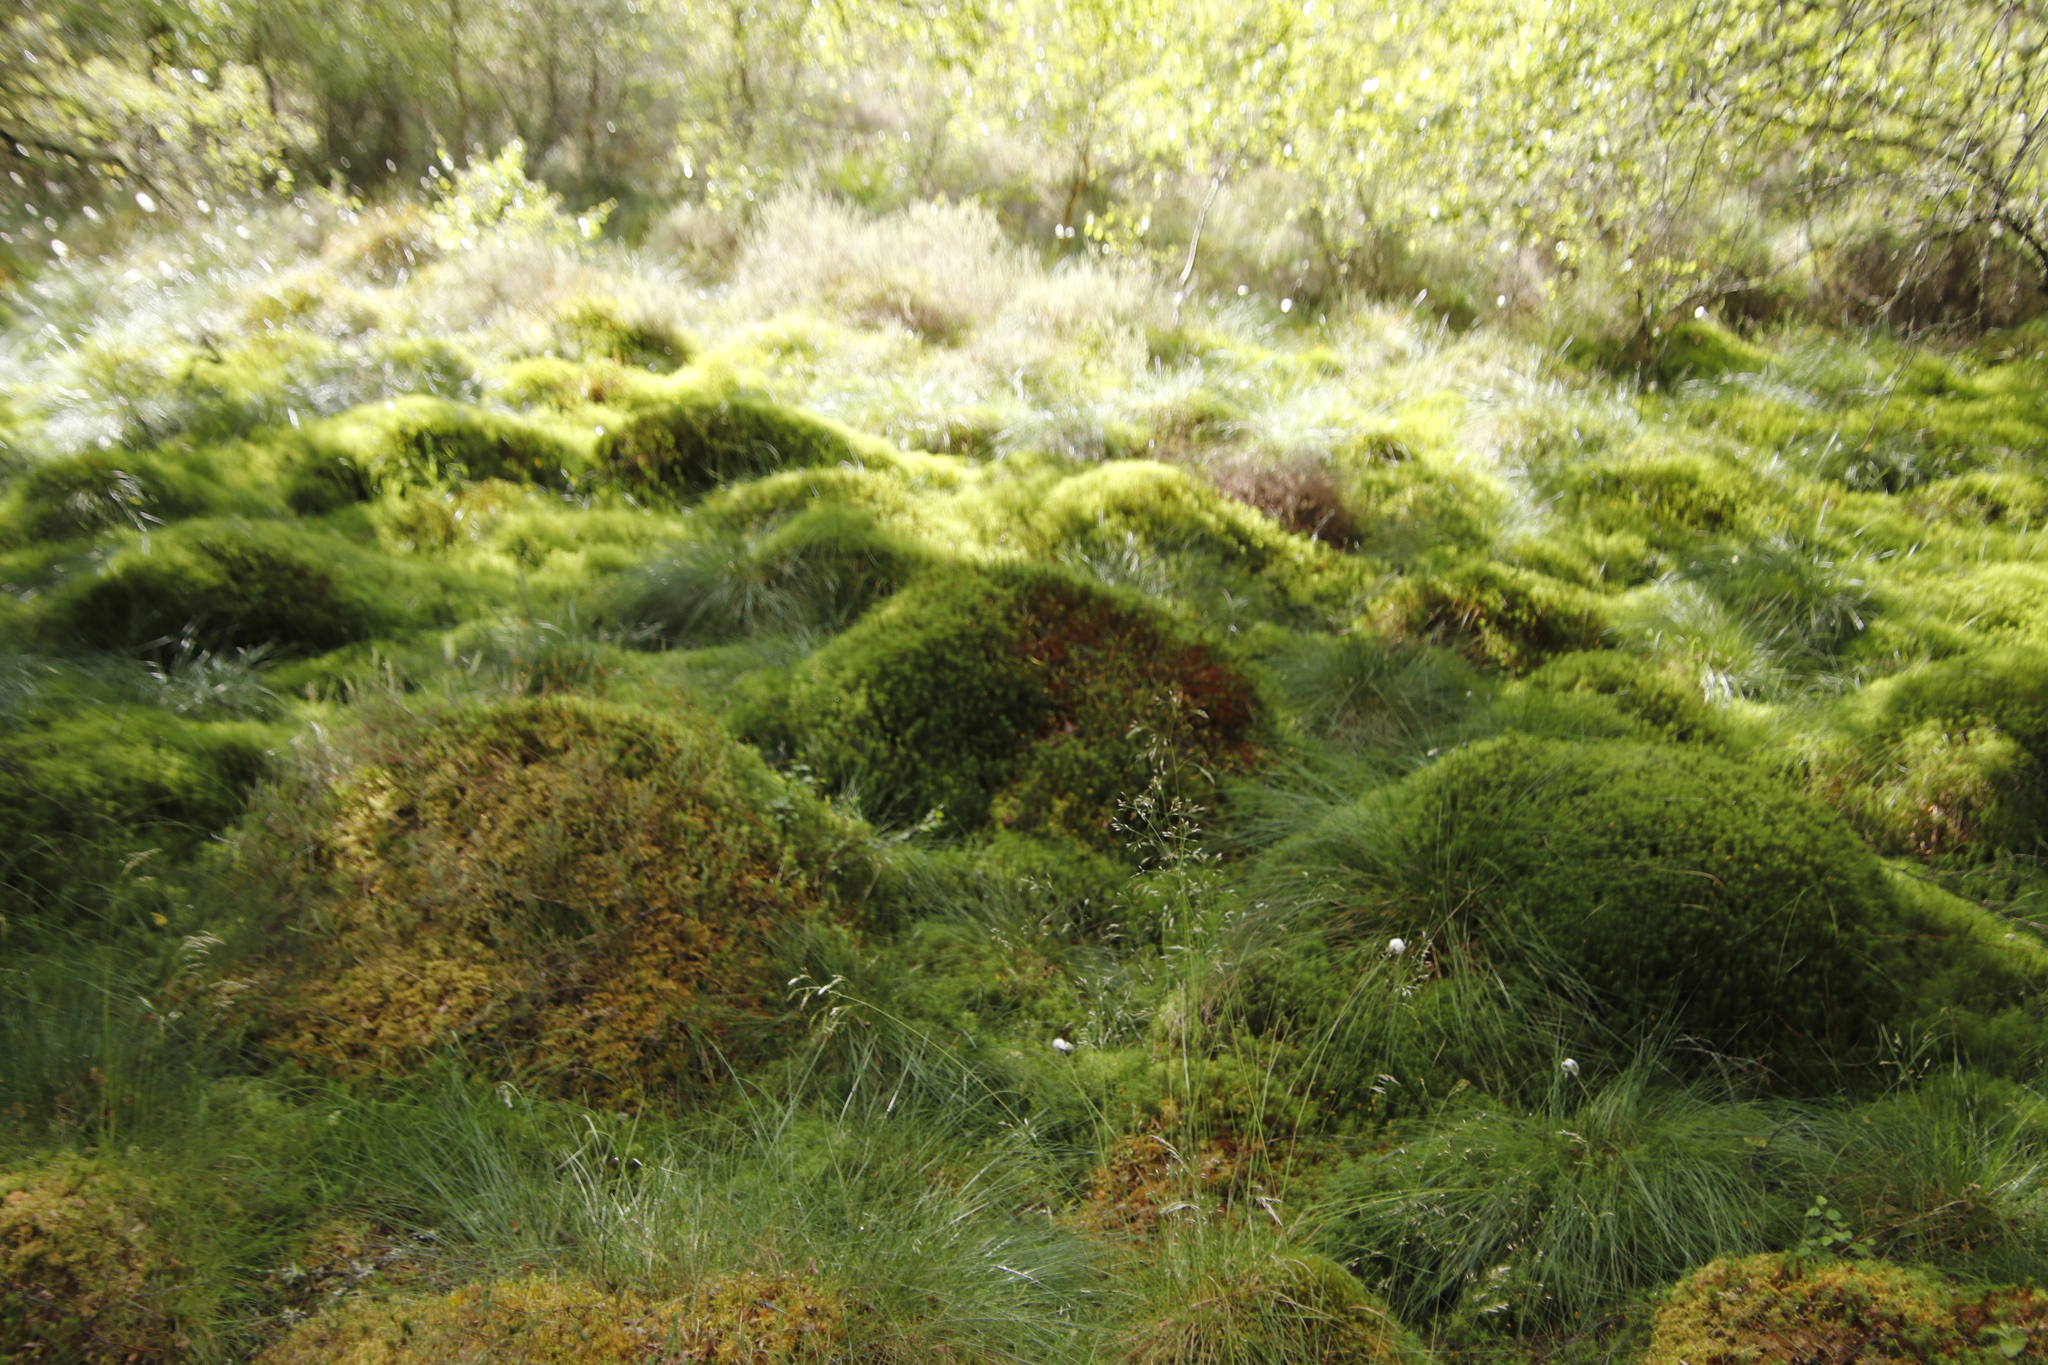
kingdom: Plantae
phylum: Bryophyta
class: Polytrichopsida
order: Polytrichales
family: Polytrichaceae
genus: Polytrichum
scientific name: Polytrichum commune
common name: Common haircap
